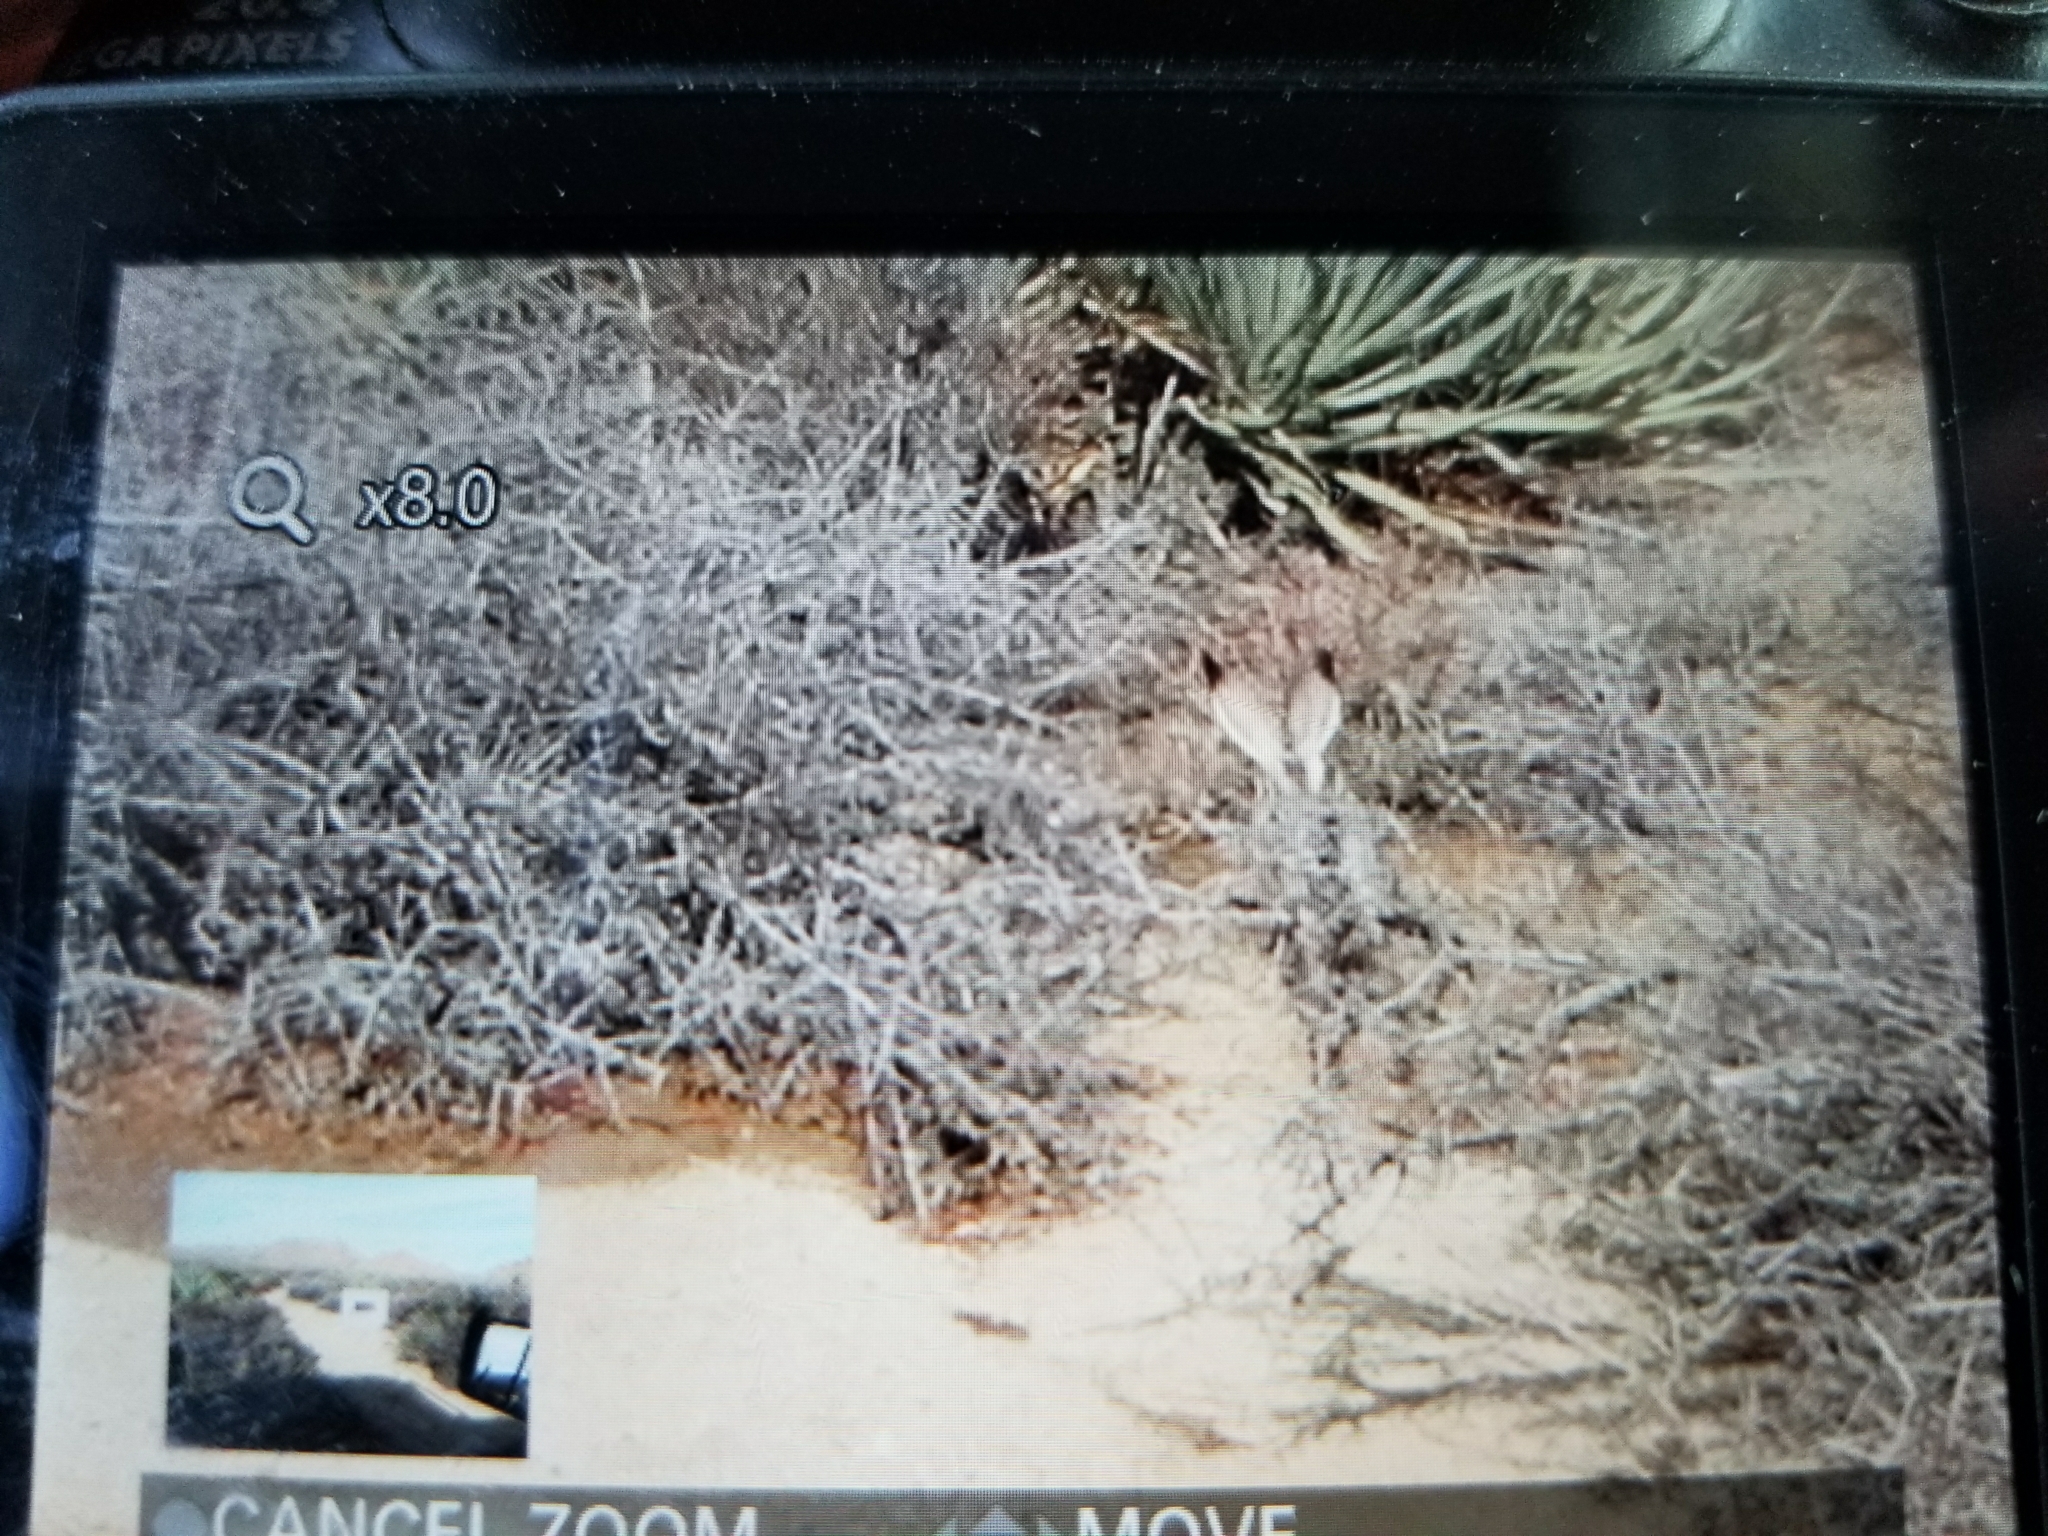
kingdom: Animalia
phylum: Chordata
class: Mammalia
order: Lagomorpha
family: Leporidae
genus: Lepus
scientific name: Lepus californicus
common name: Black-tailed jackrabbit
